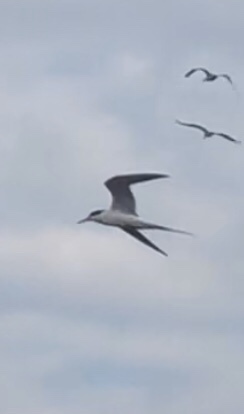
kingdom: Animalia
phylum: Chordata
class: Aves
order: Charadriiformes
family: Laridae
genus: Sterna
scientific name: Sterna forsteri
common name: Forster's tern
